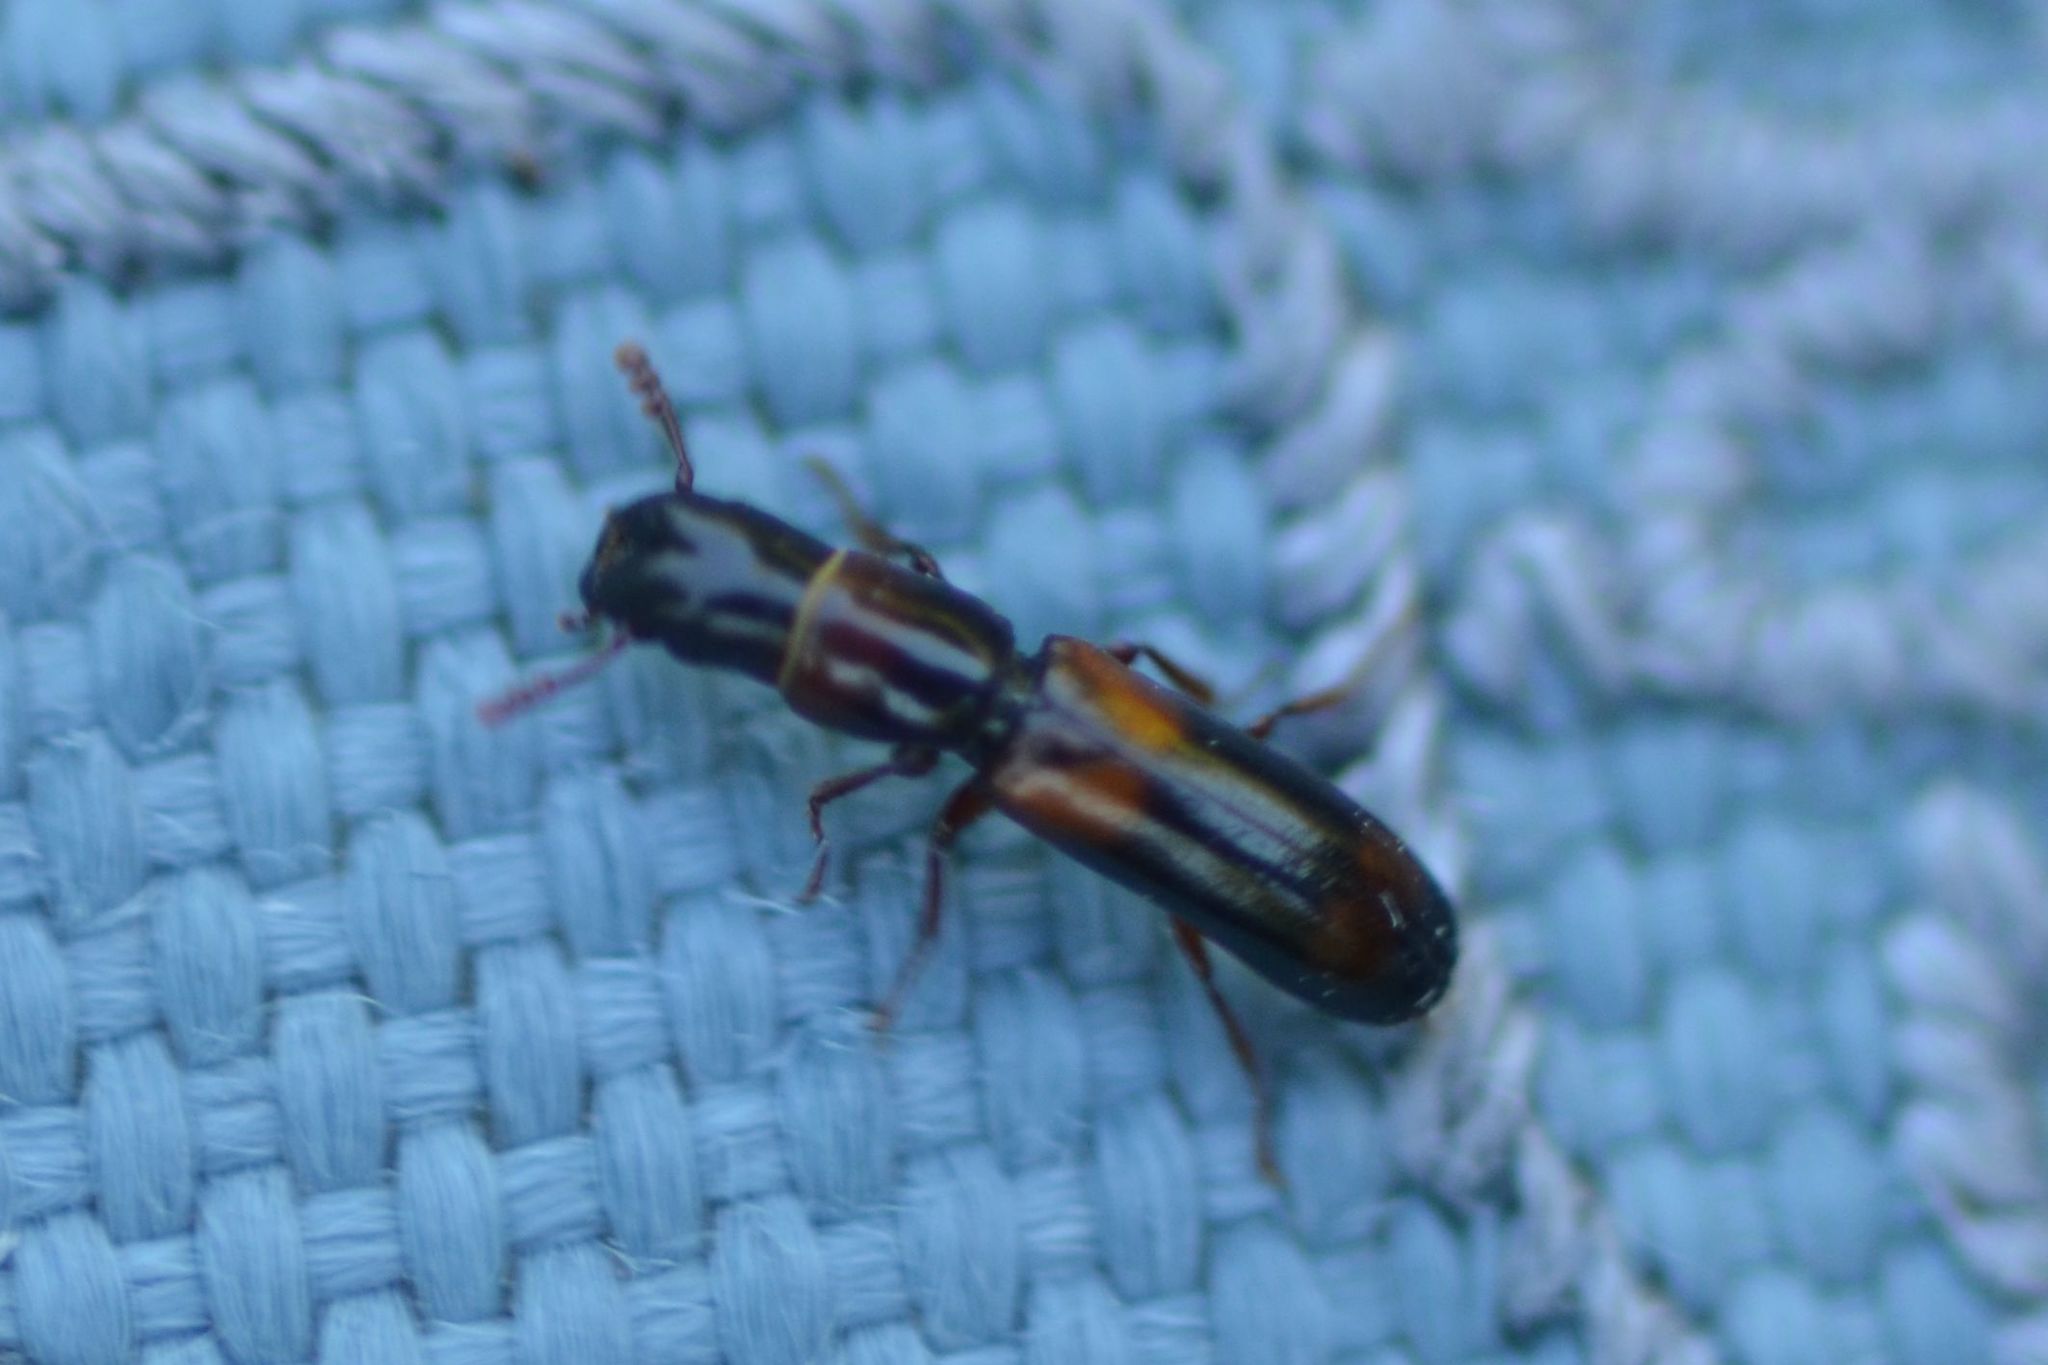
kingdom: Animalia
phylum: Arthropoda
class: Insecta
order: Coleoptera
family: Trogossitidae
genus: Nemozoma
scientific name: Nemozoma caucasicum
